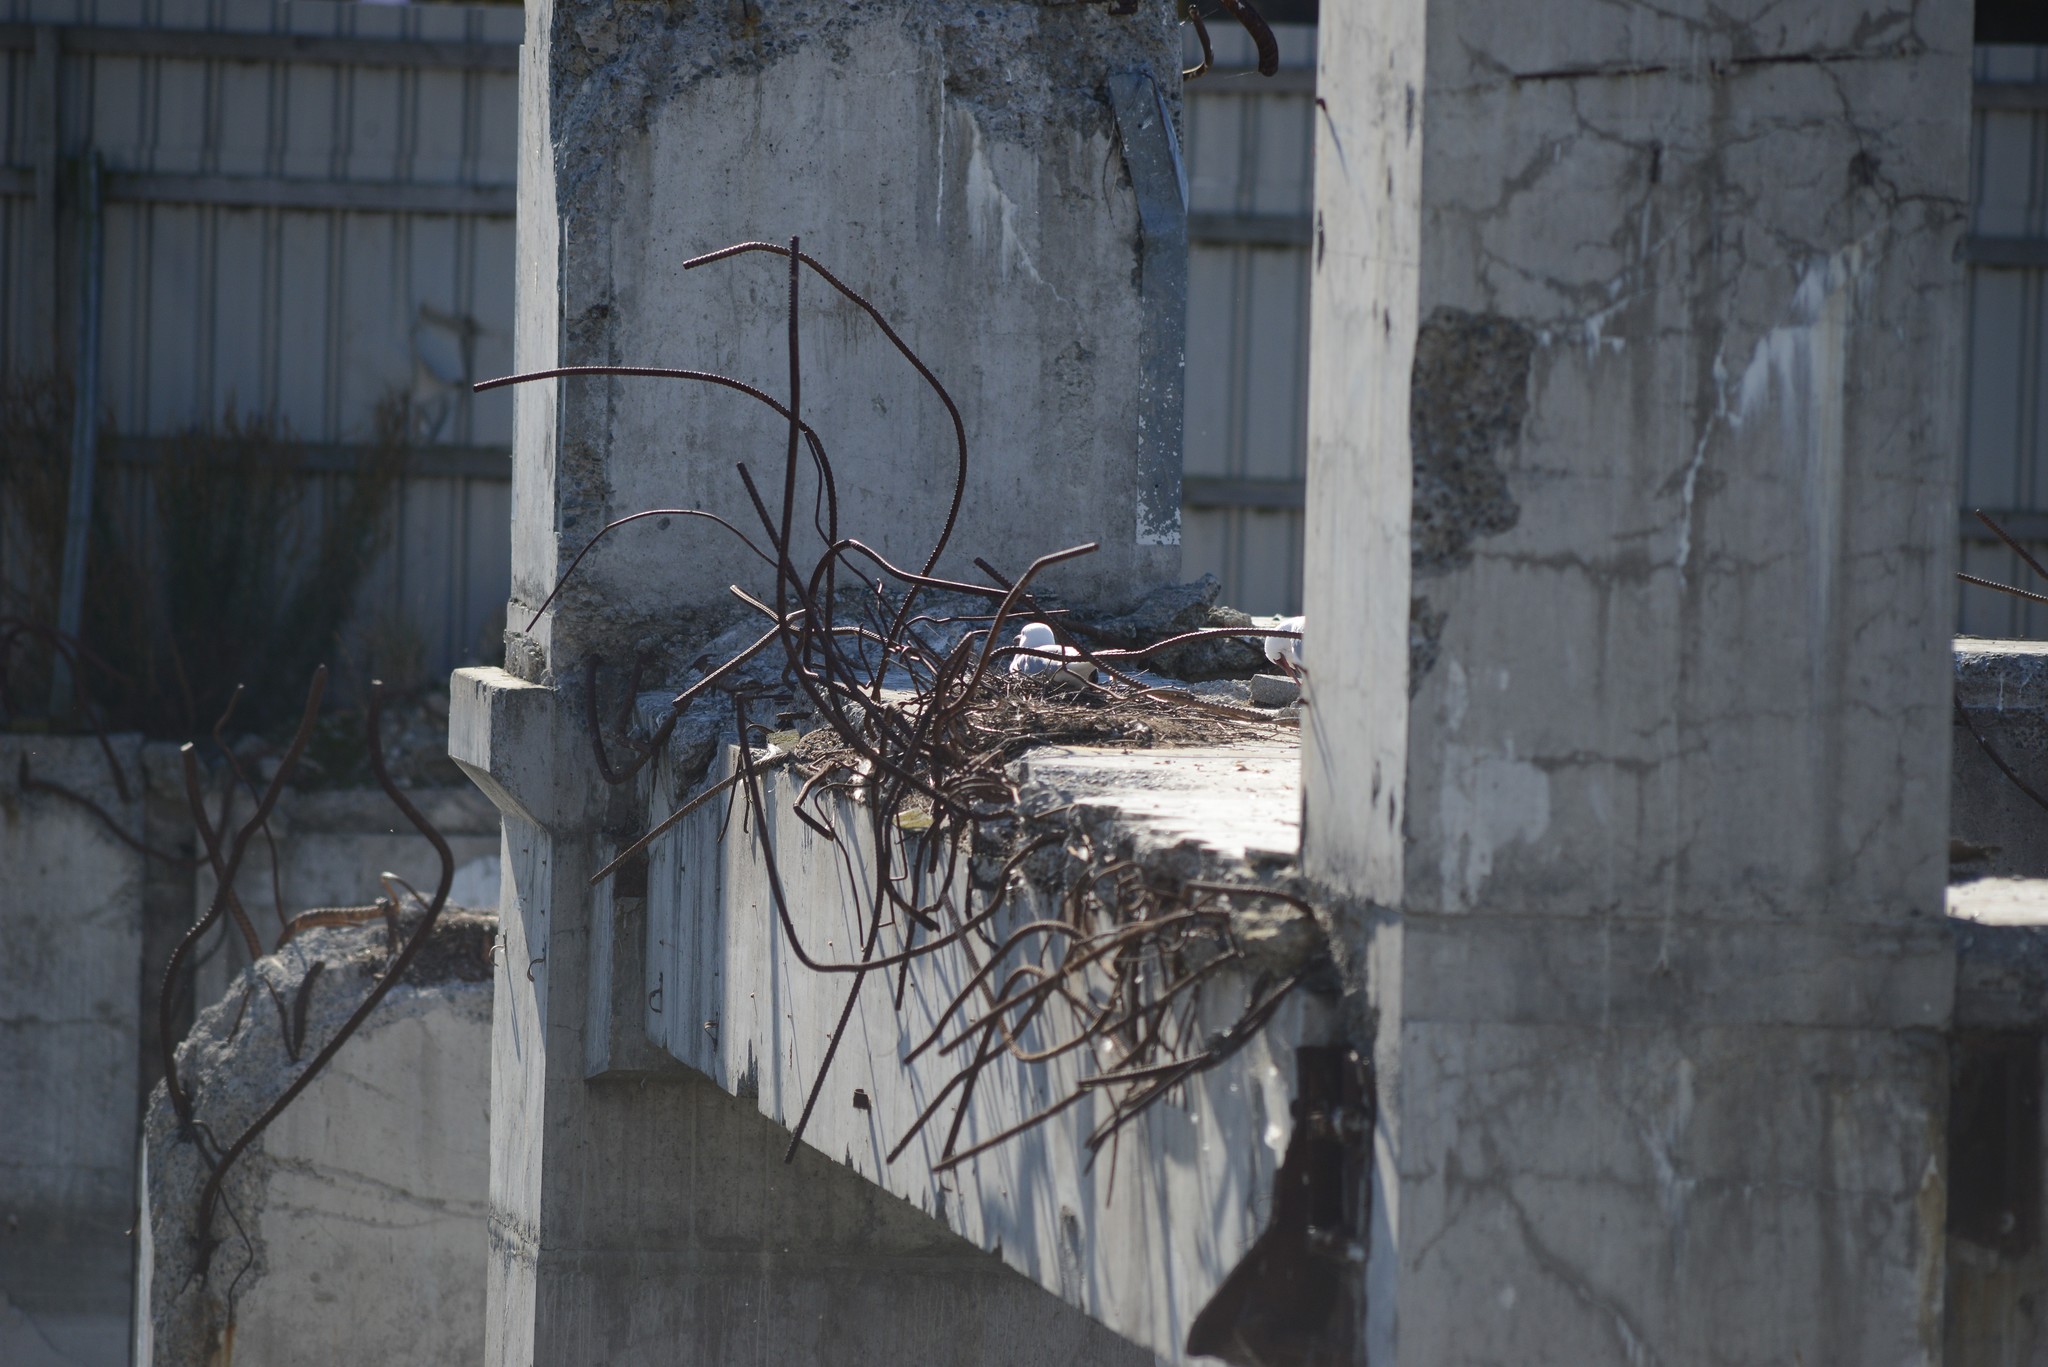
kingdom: Animalia
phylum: Chordata
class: Aves
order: Charadriiformes
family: Laridae
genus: Chroicocephalus
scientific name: Chroicocephalus novaehollandiae
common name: Silver gull
